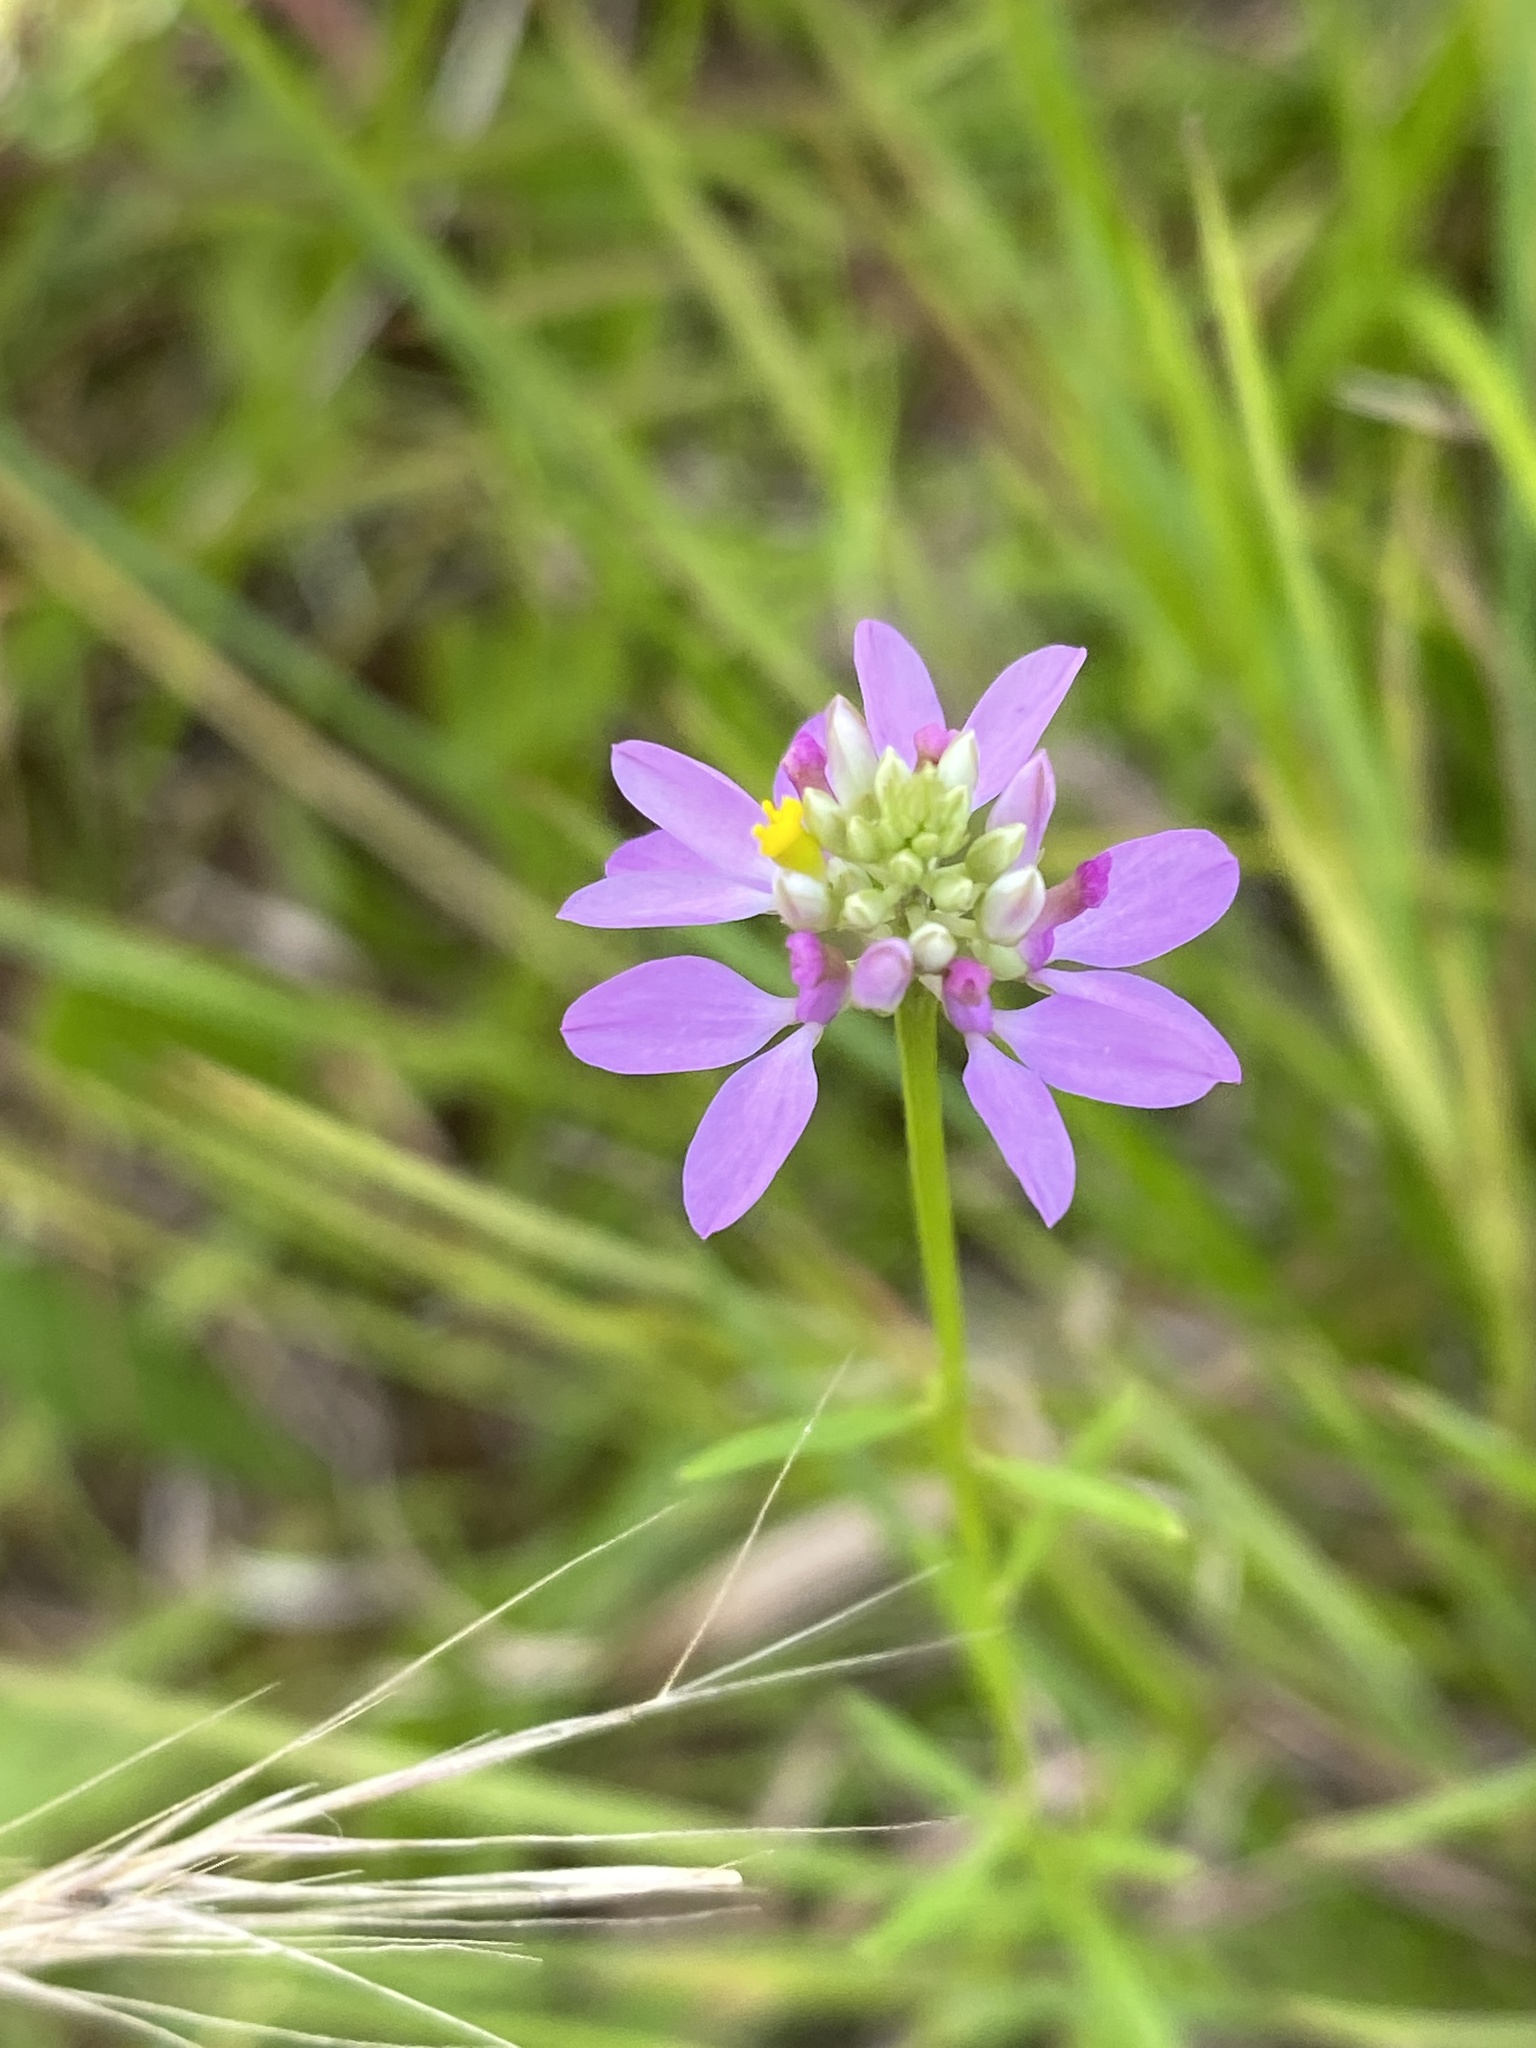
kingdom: Plantae
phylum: Tracheophyta
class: Magnoliopsida
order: Fabales
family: Polygalaceae
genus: Polygala
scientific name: Polygala curtissii
